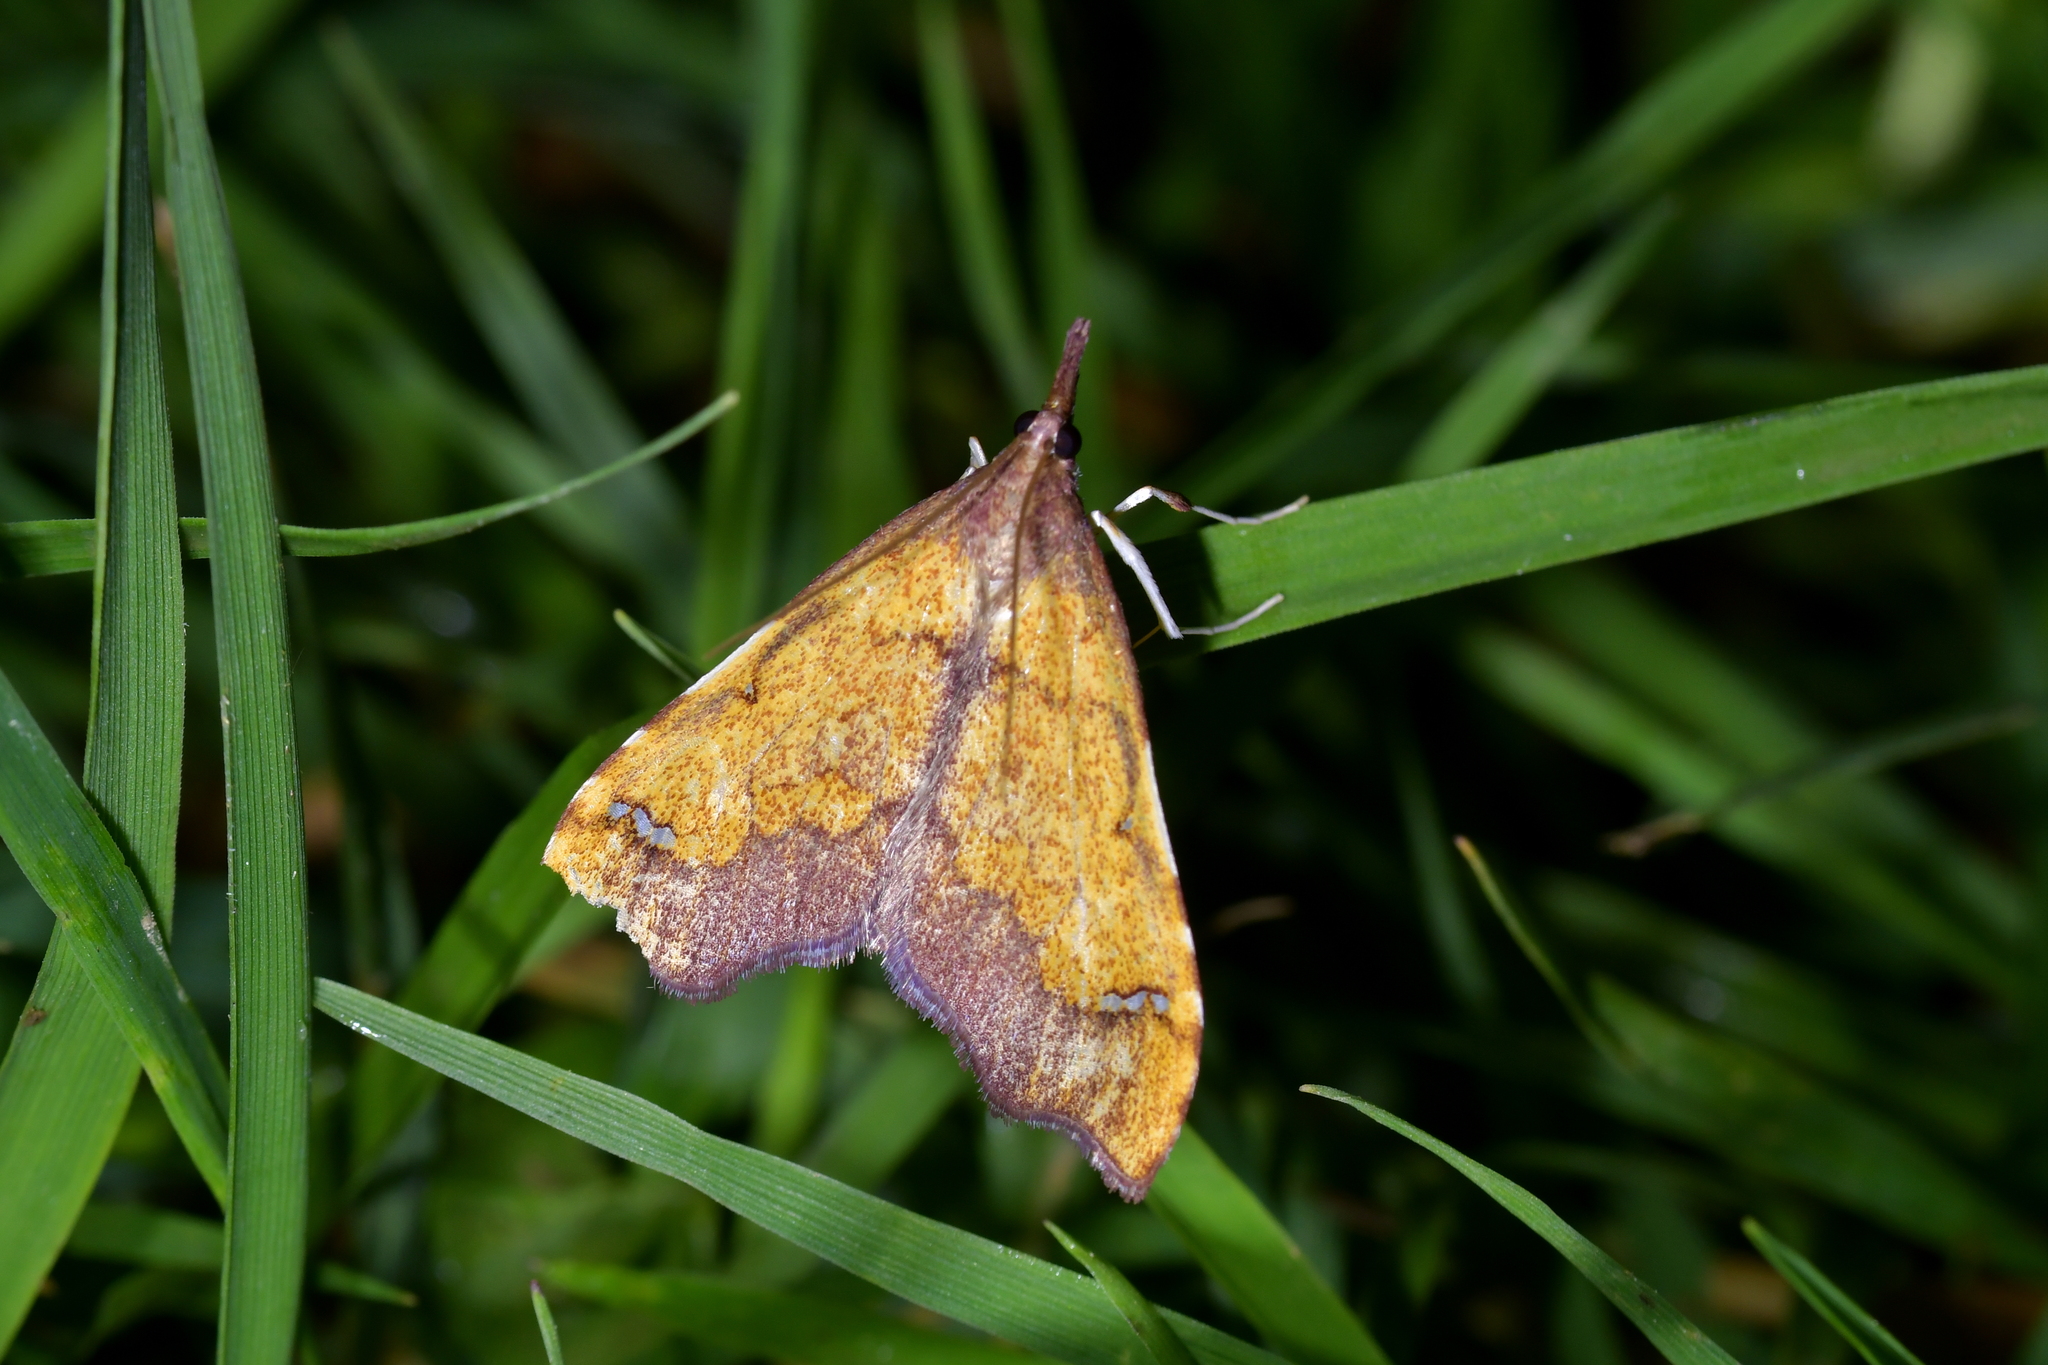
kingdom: Animalia
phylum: Arthropoda
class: Insecta
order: Lepidoptera
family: Crambidae
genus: Deana
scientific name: Deana hybreasalis
